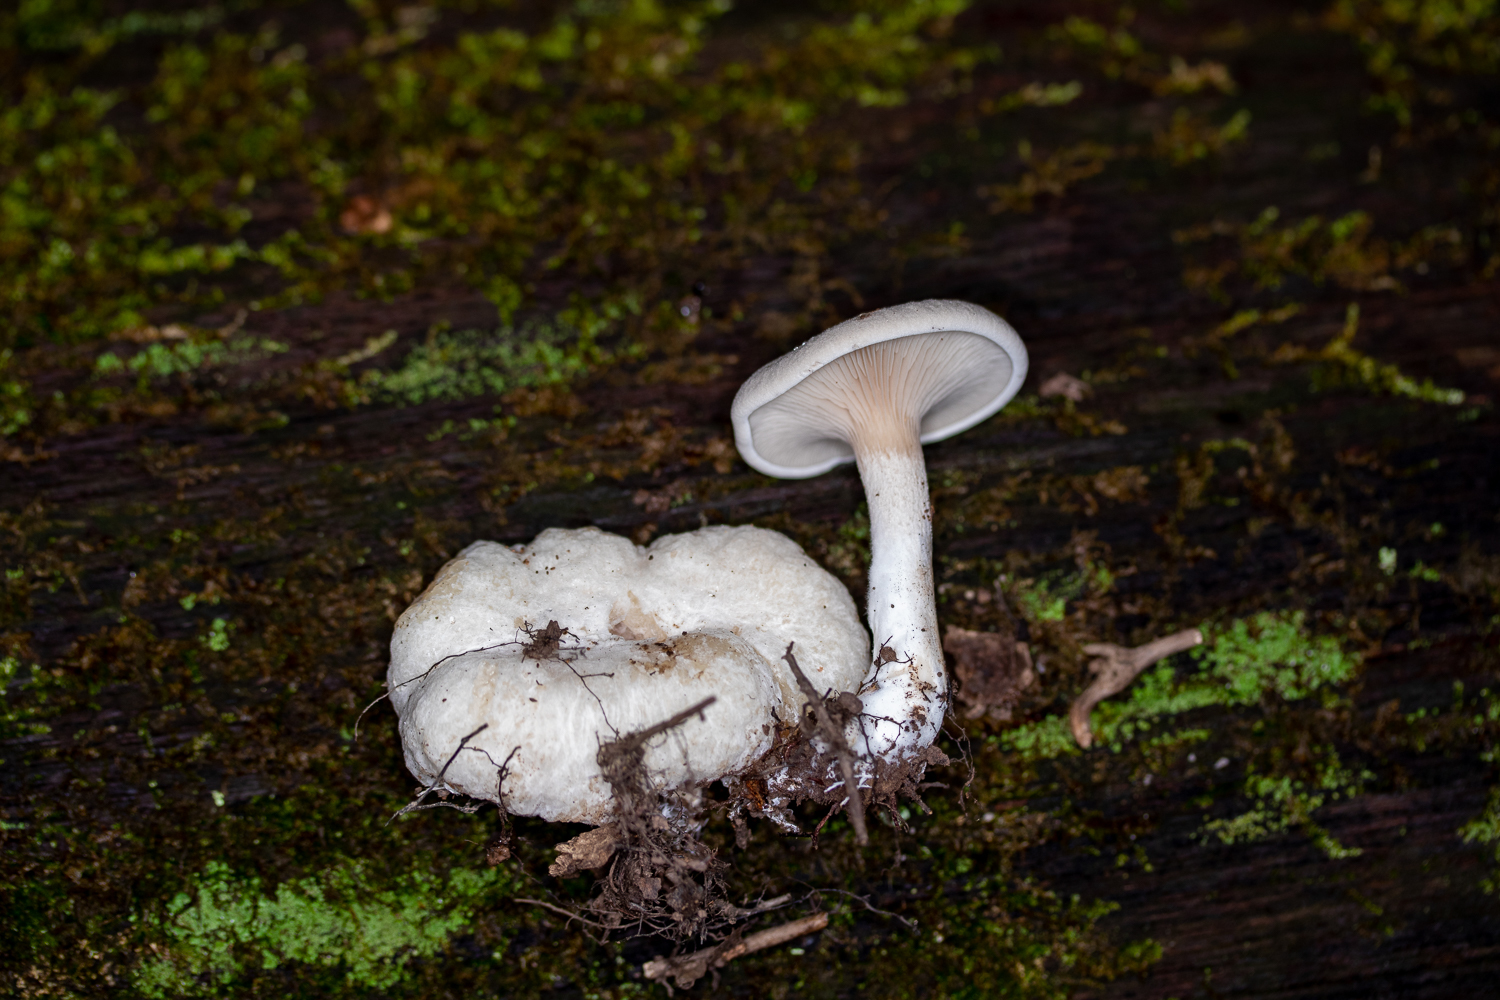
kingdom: Fungi
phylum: Basidiomycota
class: Agaricomycetes
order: Agaricales
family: Entolomataceae
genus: Entoloma
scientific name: Entoloma abortivum
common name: Aborted entoloma
